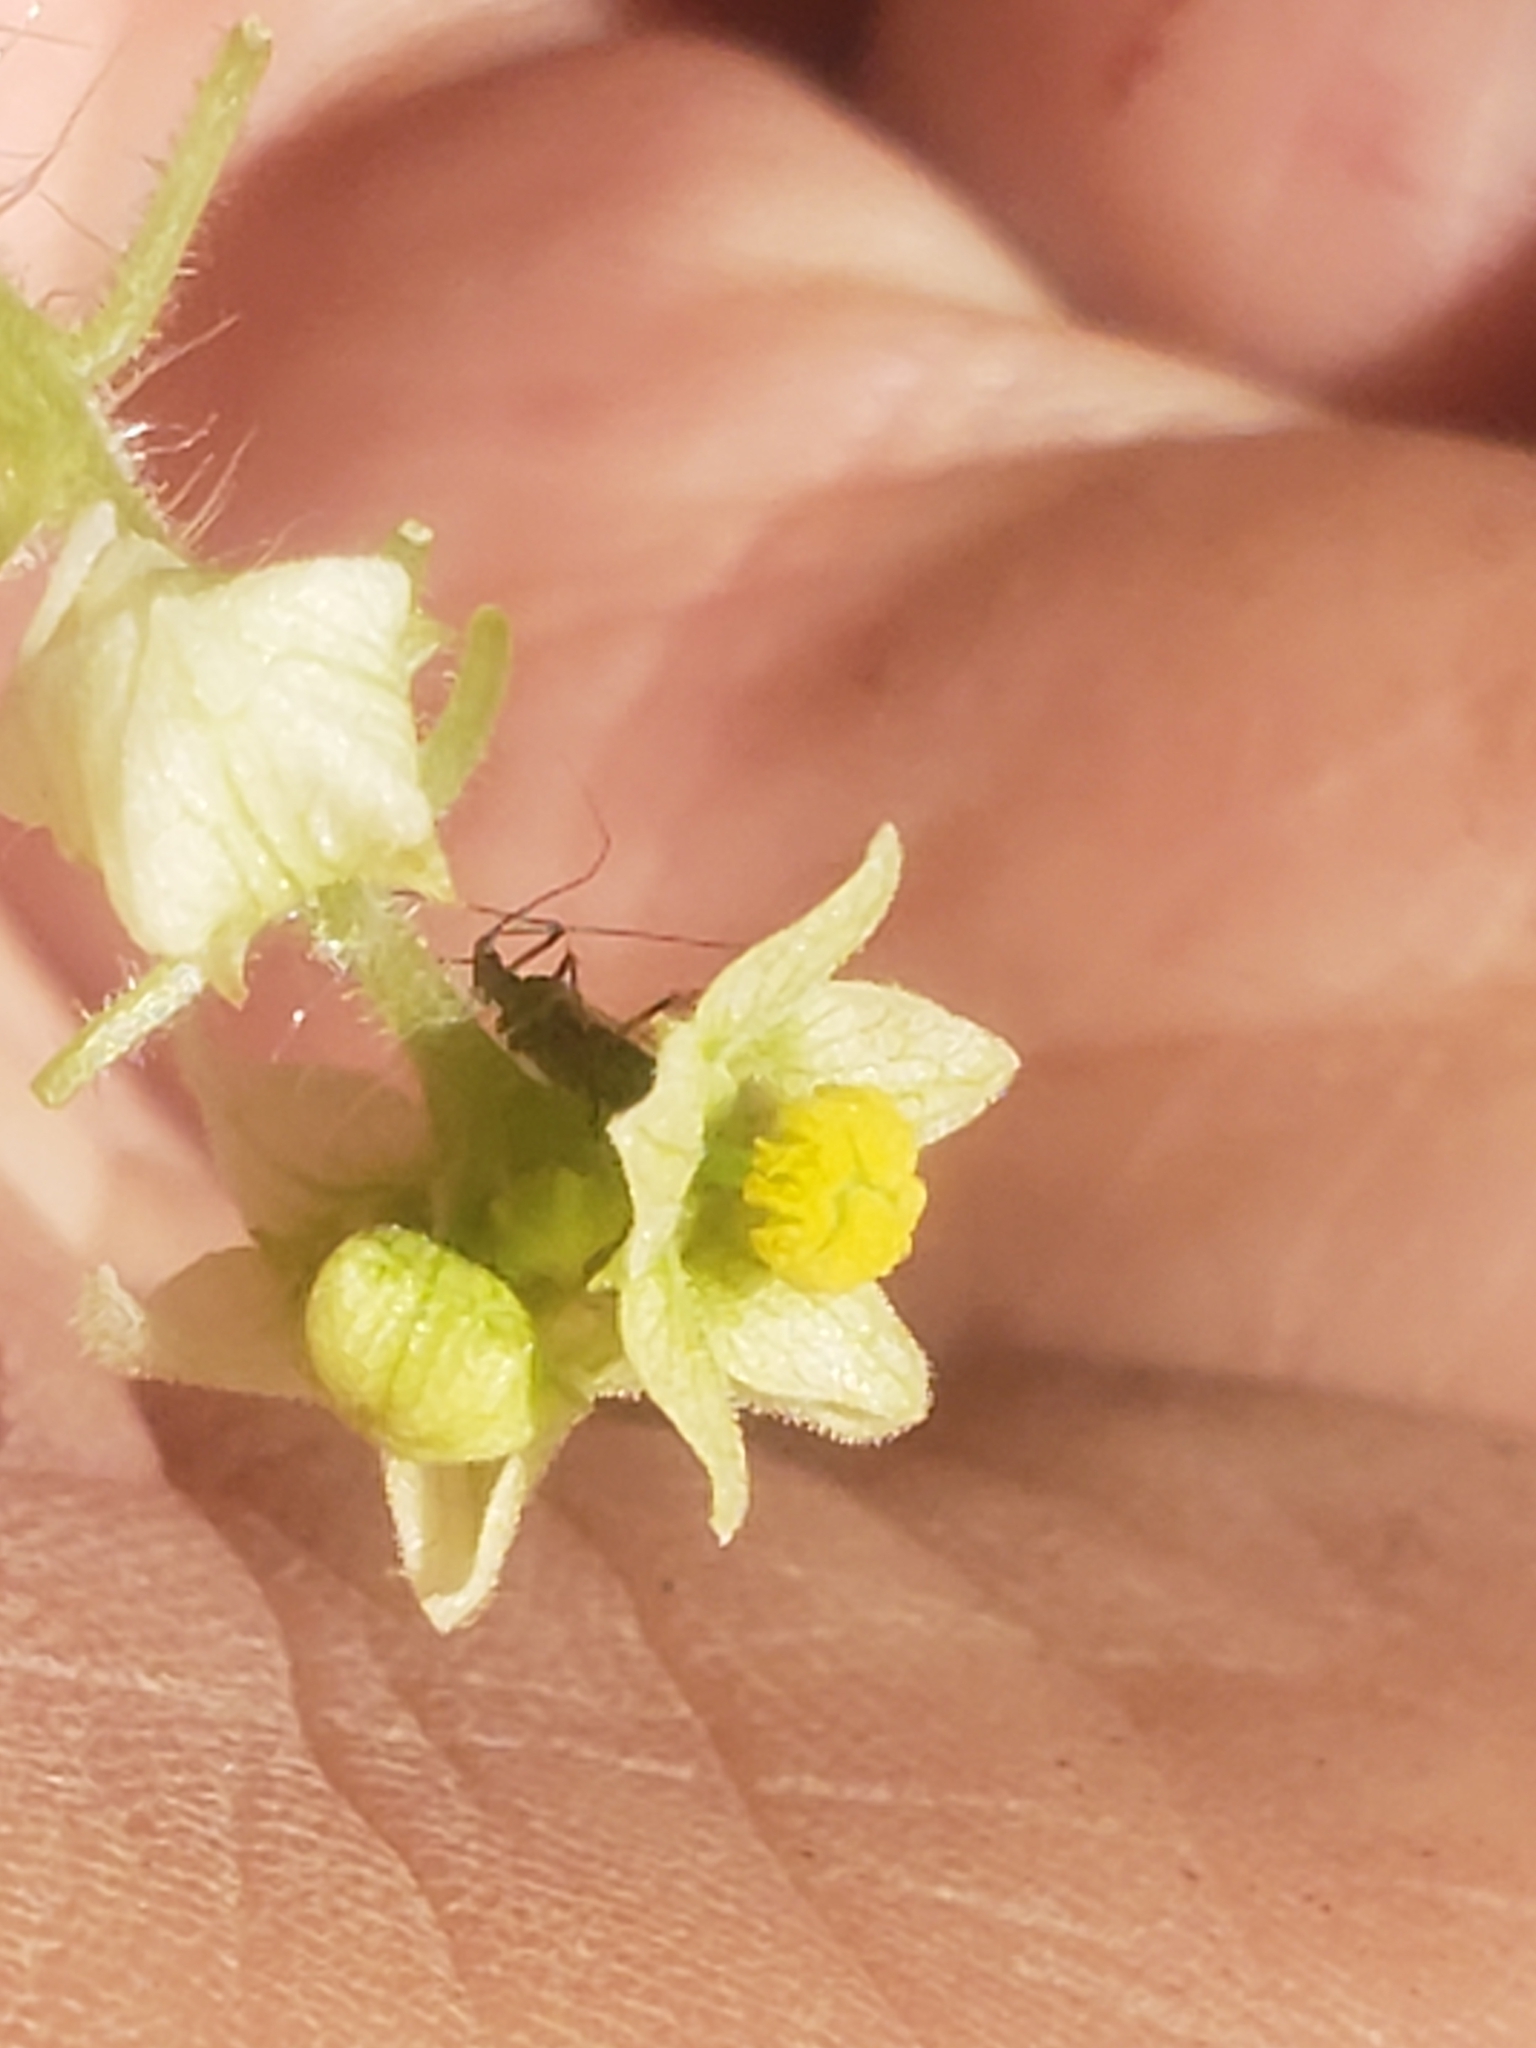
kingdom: Plantae
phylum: Tracheophyta
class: Magnoliopsida
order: Cucurbitales
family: Cucurbitaceae
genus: Sicyos
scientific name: Sicyos angulatus
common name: Angled burr cucumber
